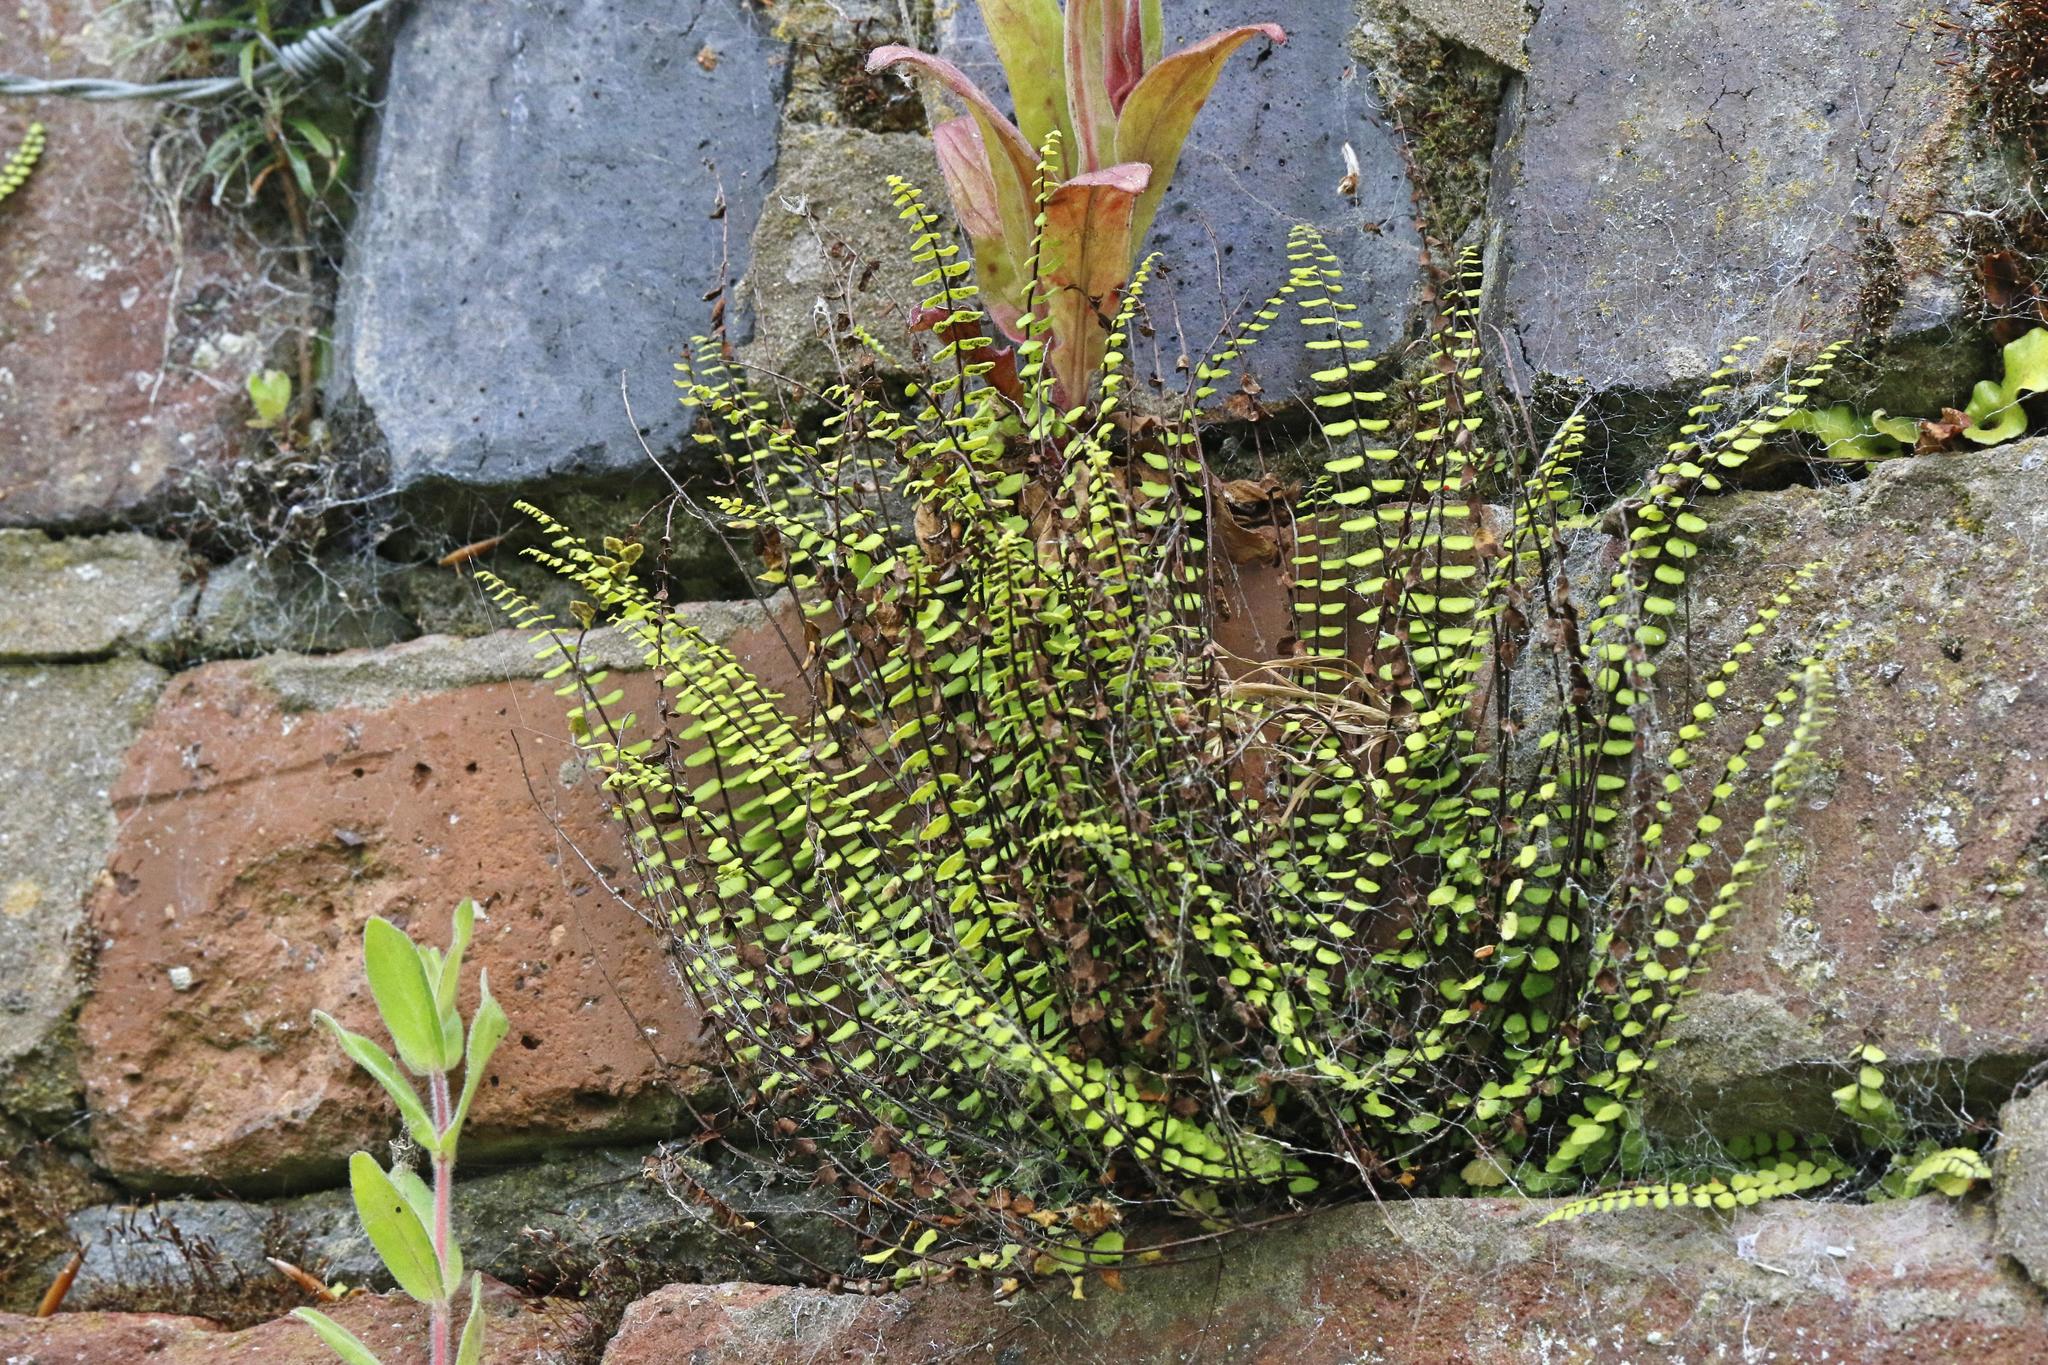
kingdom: Plantae
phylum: Tracheophyta
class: Polypodiopsida
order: Polypodiales
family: Aspleniaceae
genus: Asplenium
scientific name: Asplenium trichomanes
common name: Maidenhair spleenwort
